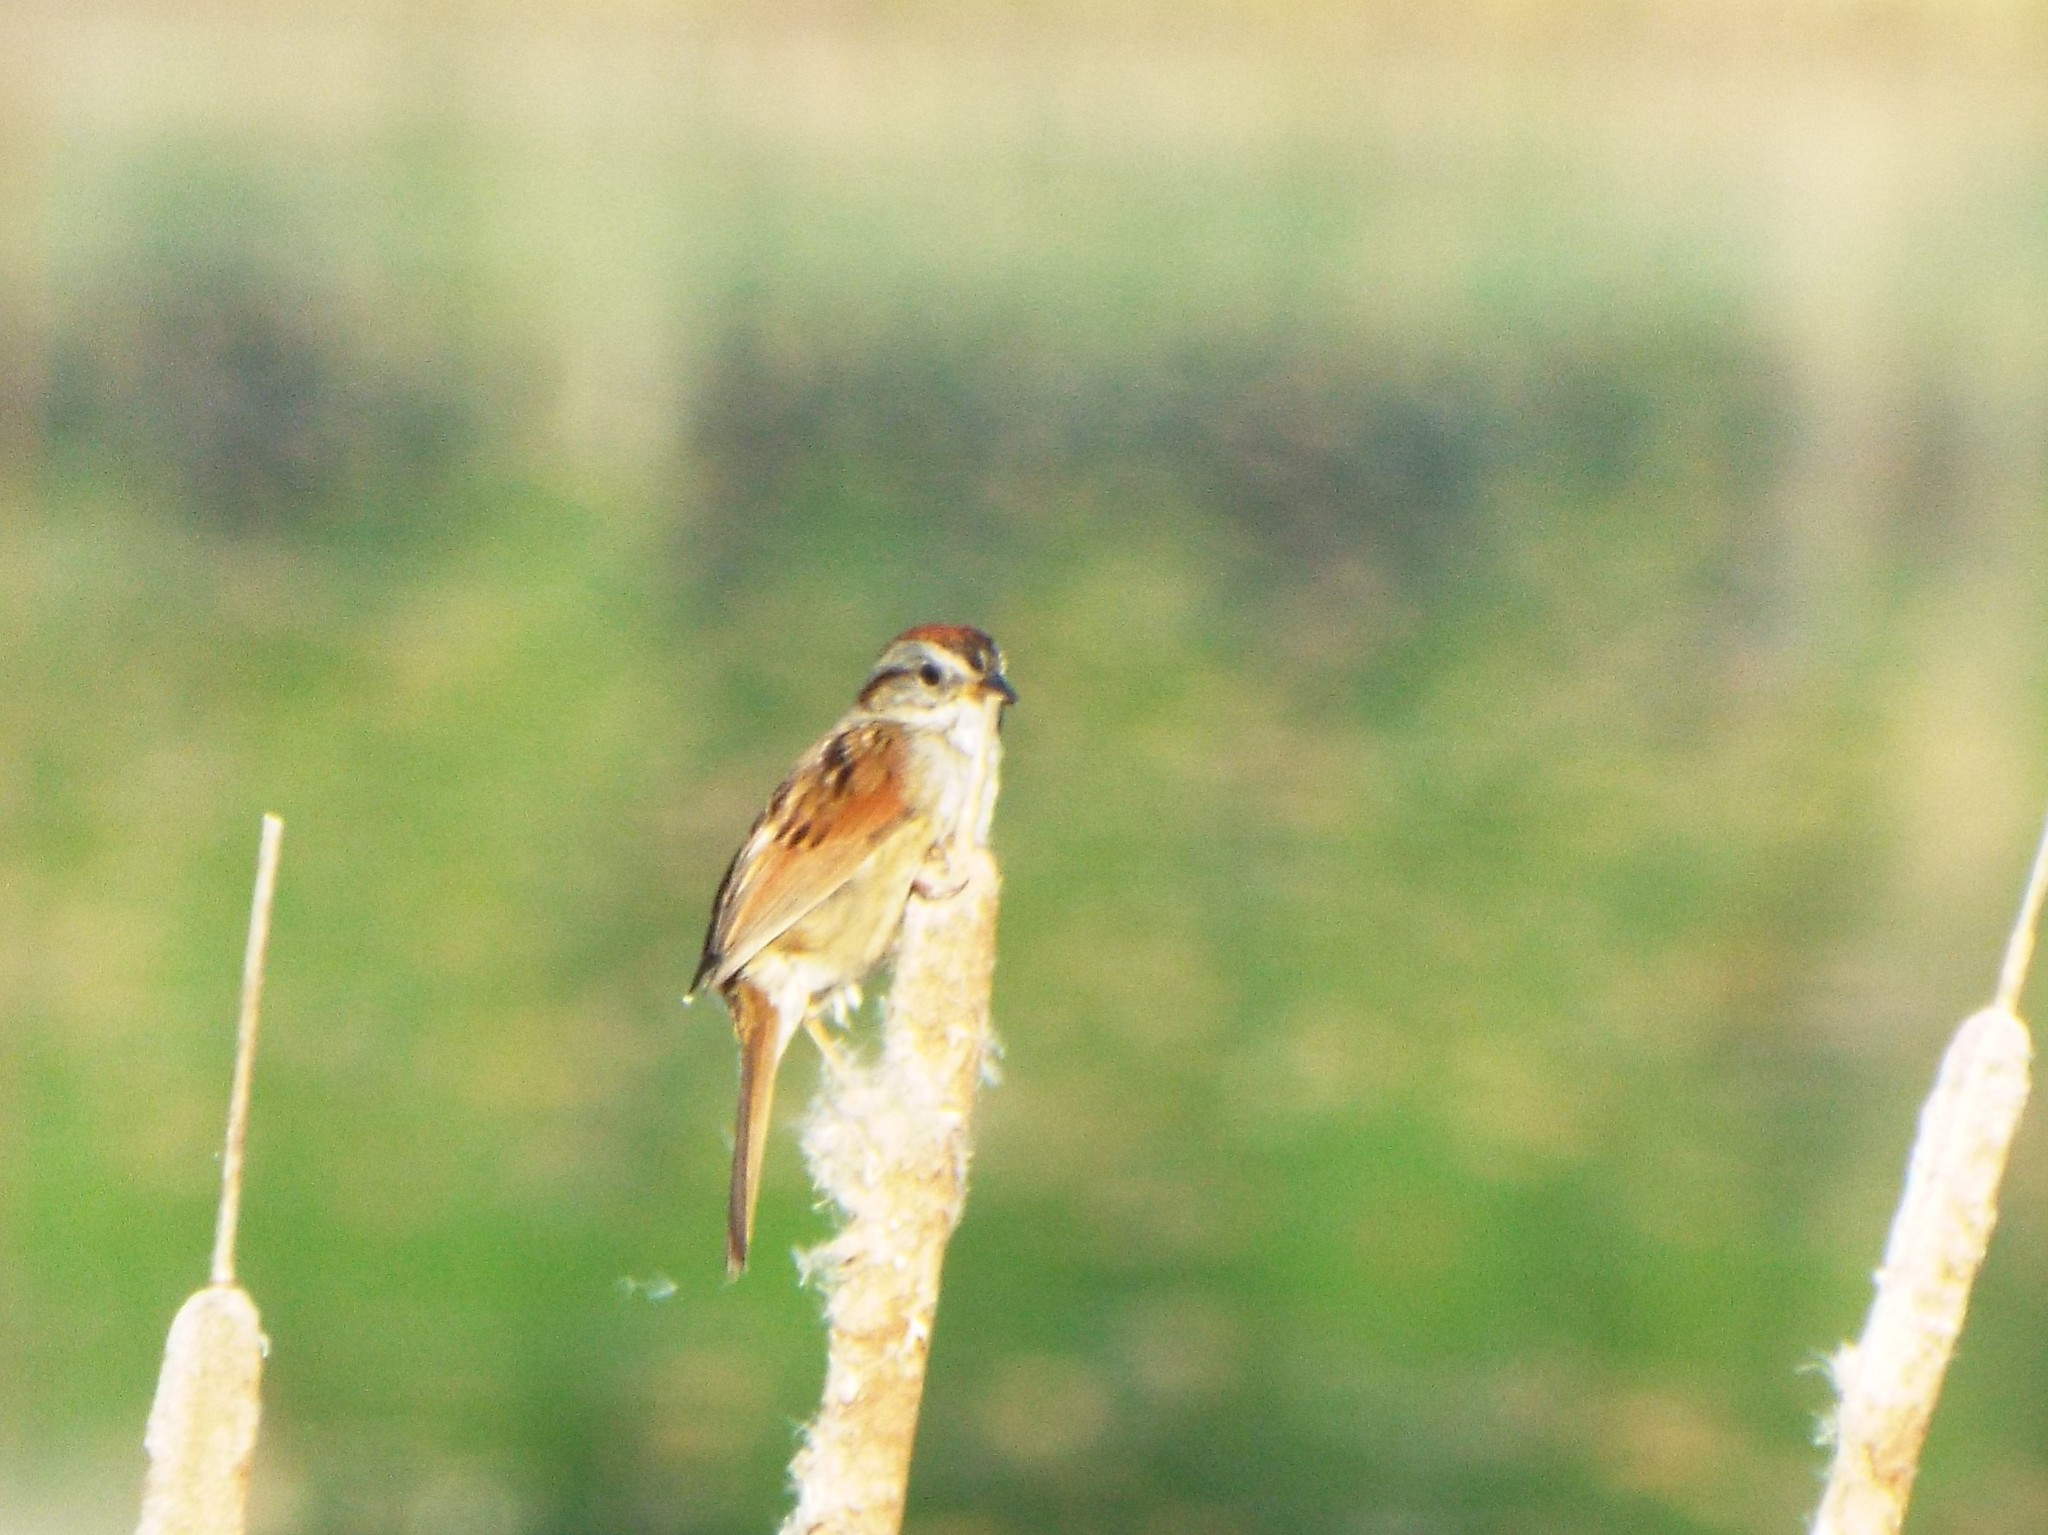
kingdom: Animalia
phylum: Chordata
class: Aves
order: Passeriformes
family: Passerellidae
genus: Melospiza
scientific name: Melospiza georgiana
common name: Swamp sparrow
